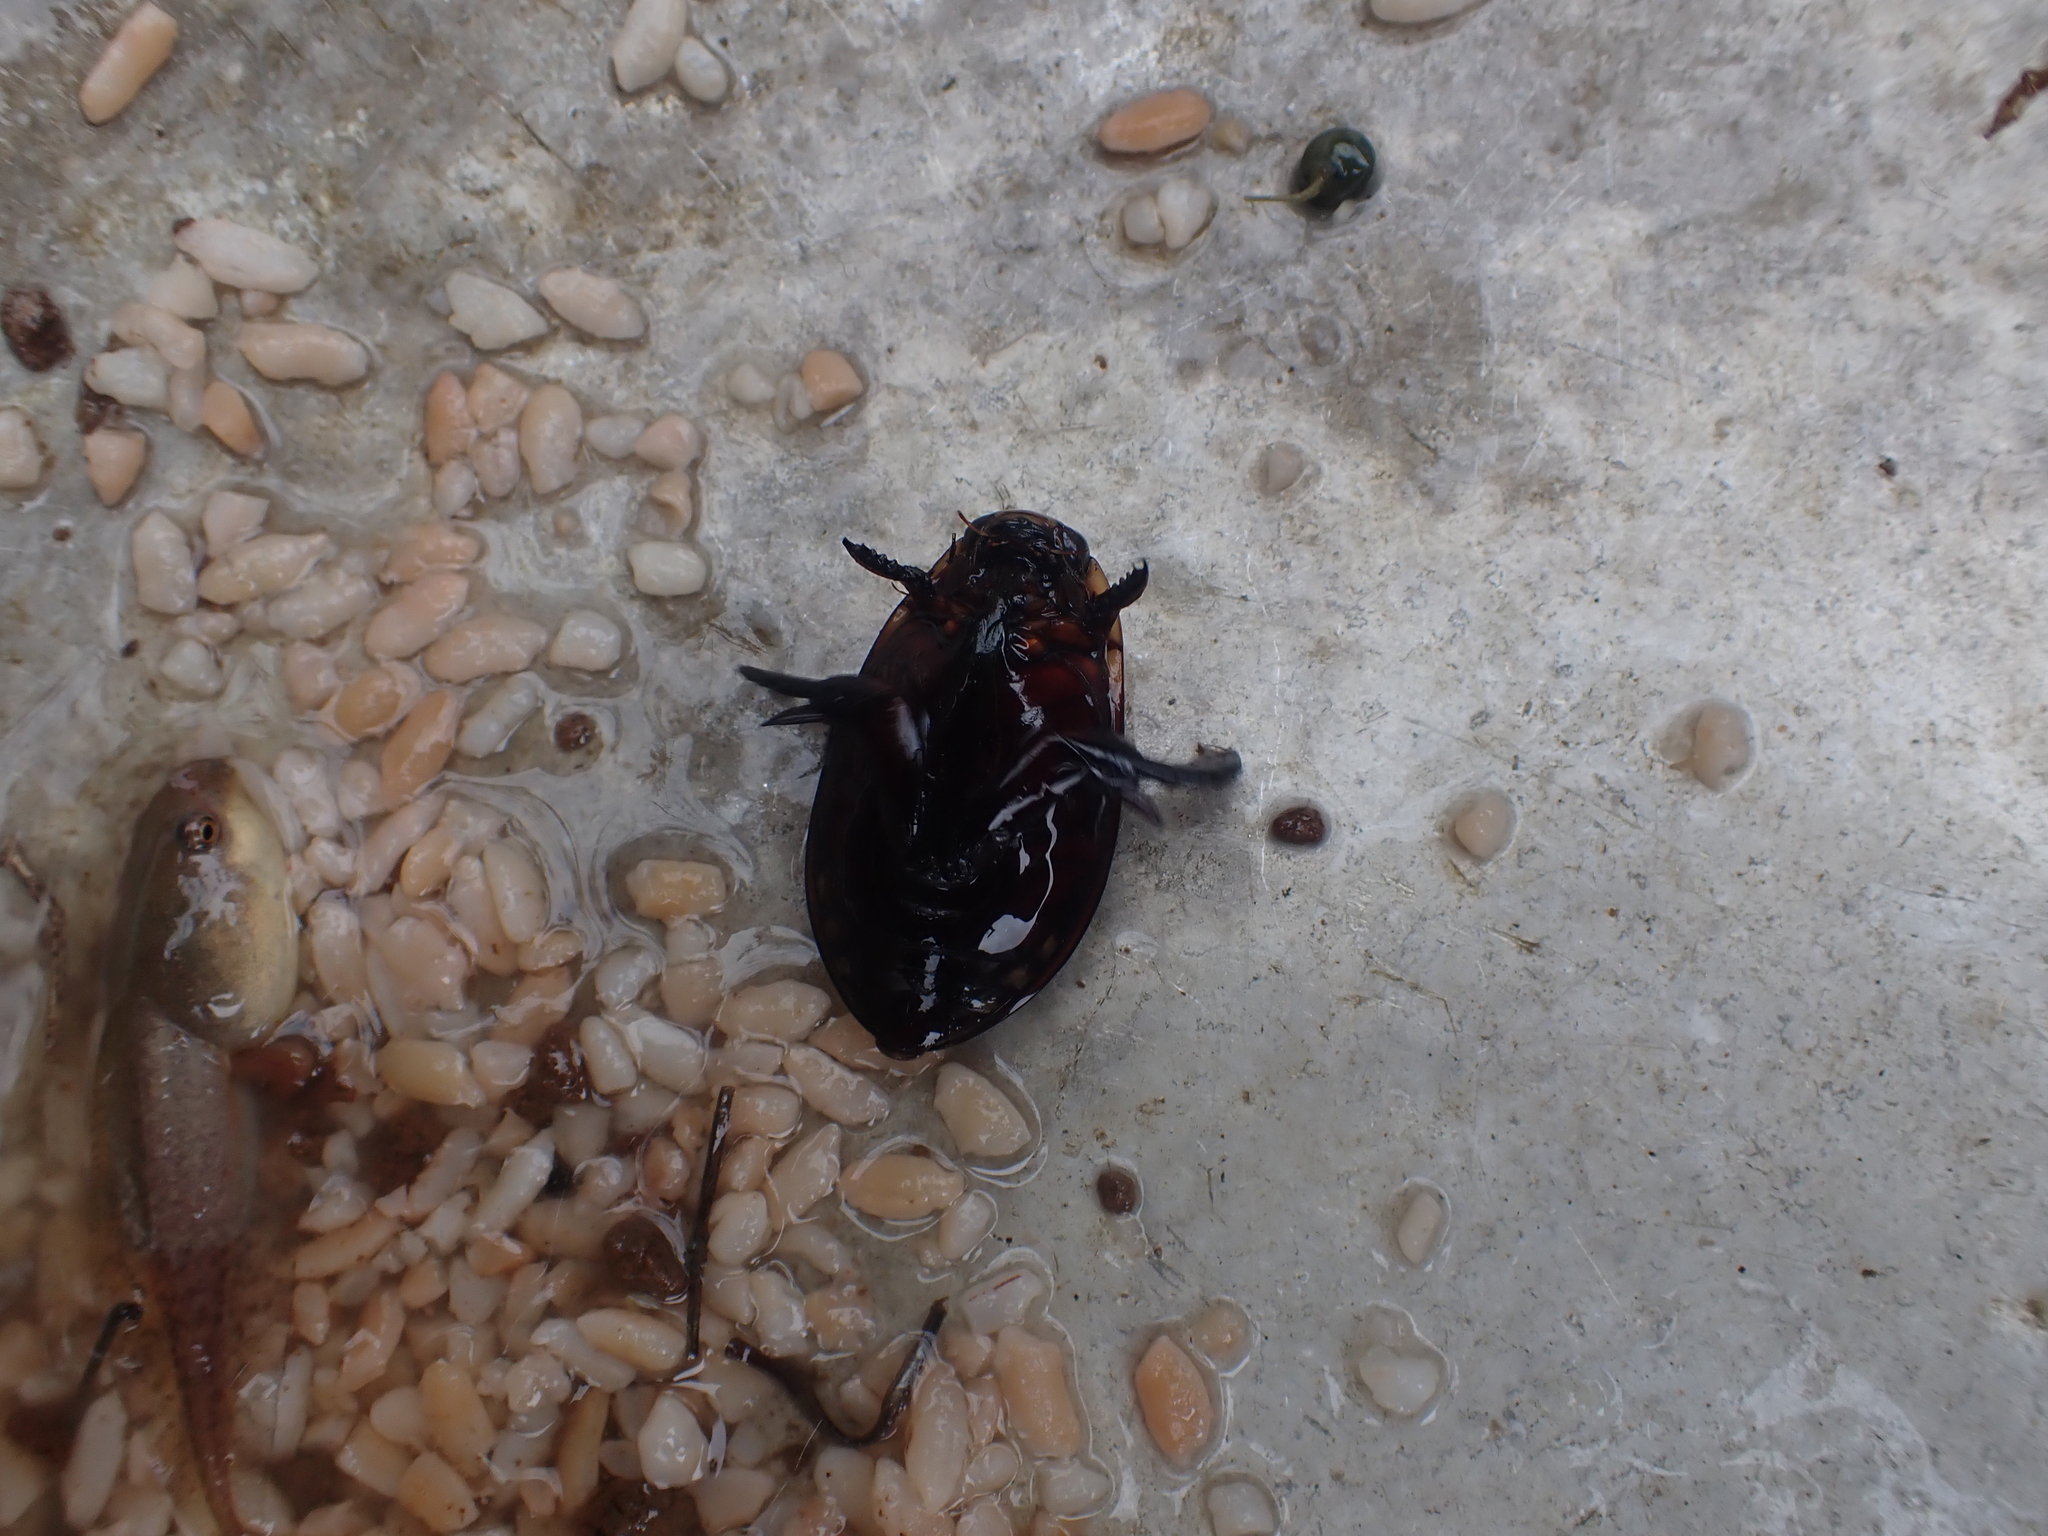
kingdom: Animalia
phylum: Arthropoda
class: Insecta
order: Coleoptera
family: Dytiscidae
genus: Cybister
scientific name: Cybister tripunctatus
